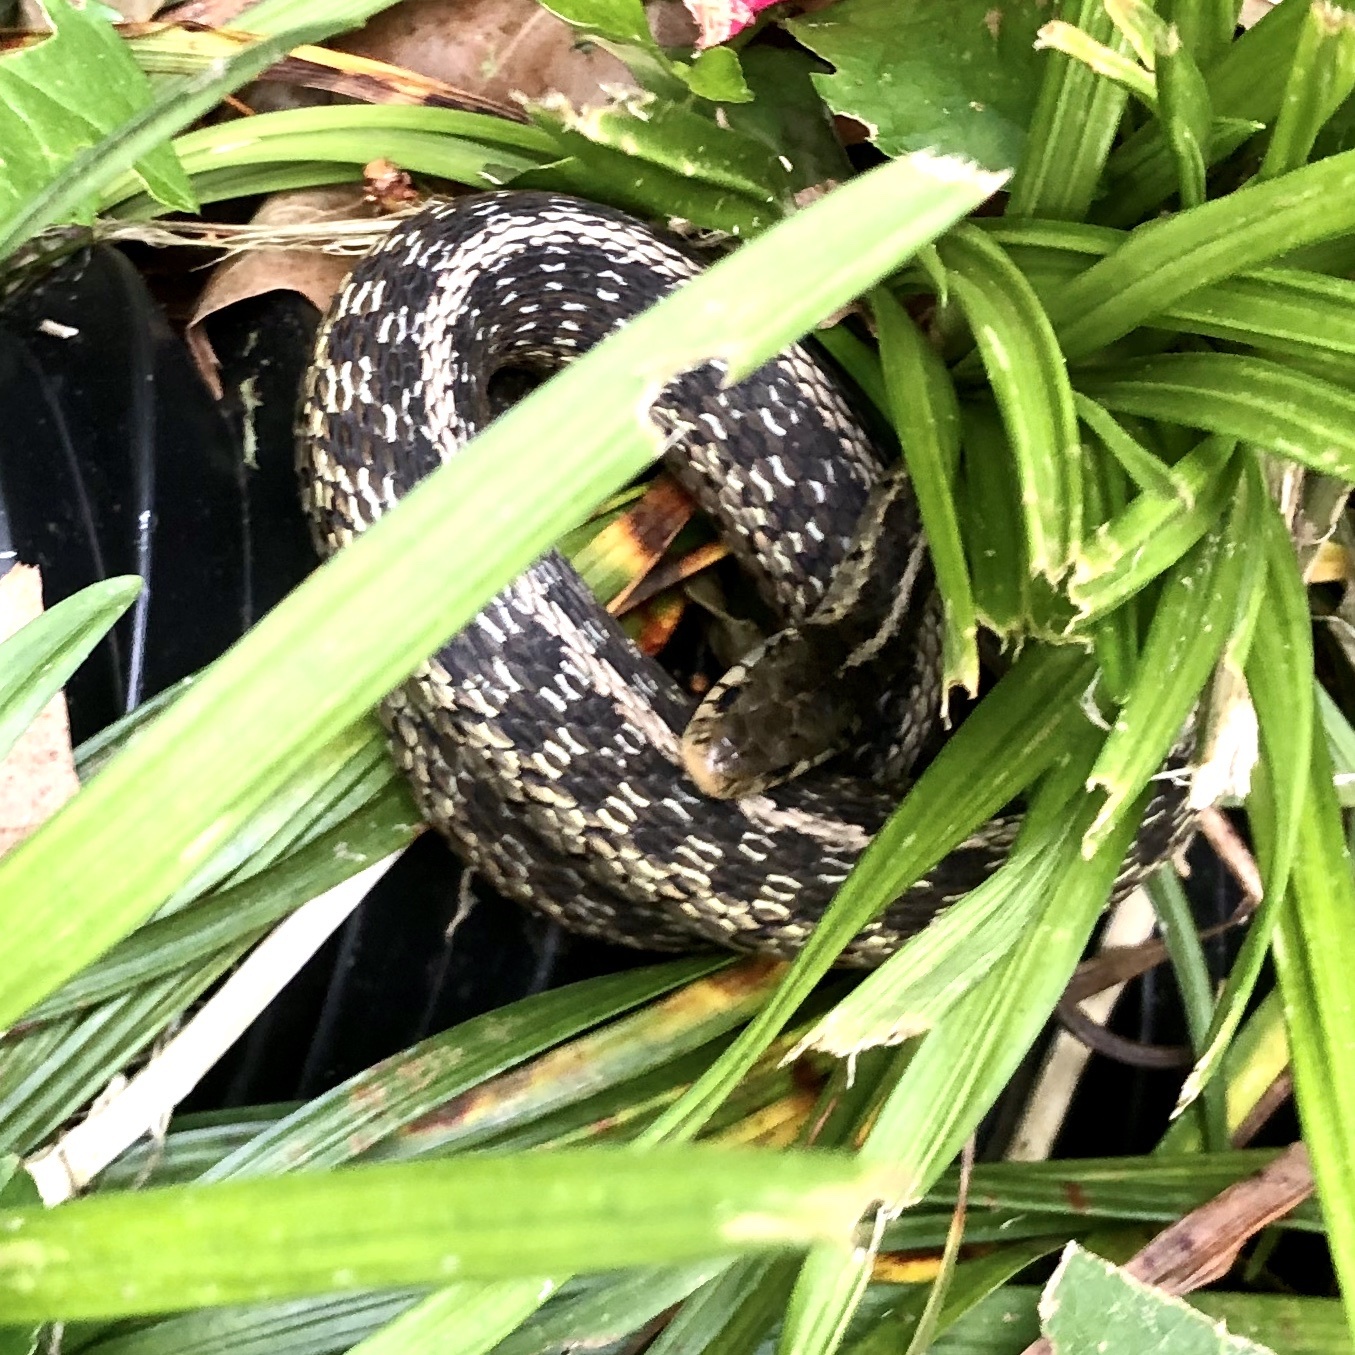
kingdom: Animalia
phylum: Chordata
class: Squamata
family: Colubridae
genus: Thamnophis
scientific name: Thamnophis sirtalis
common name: Common garter snake
